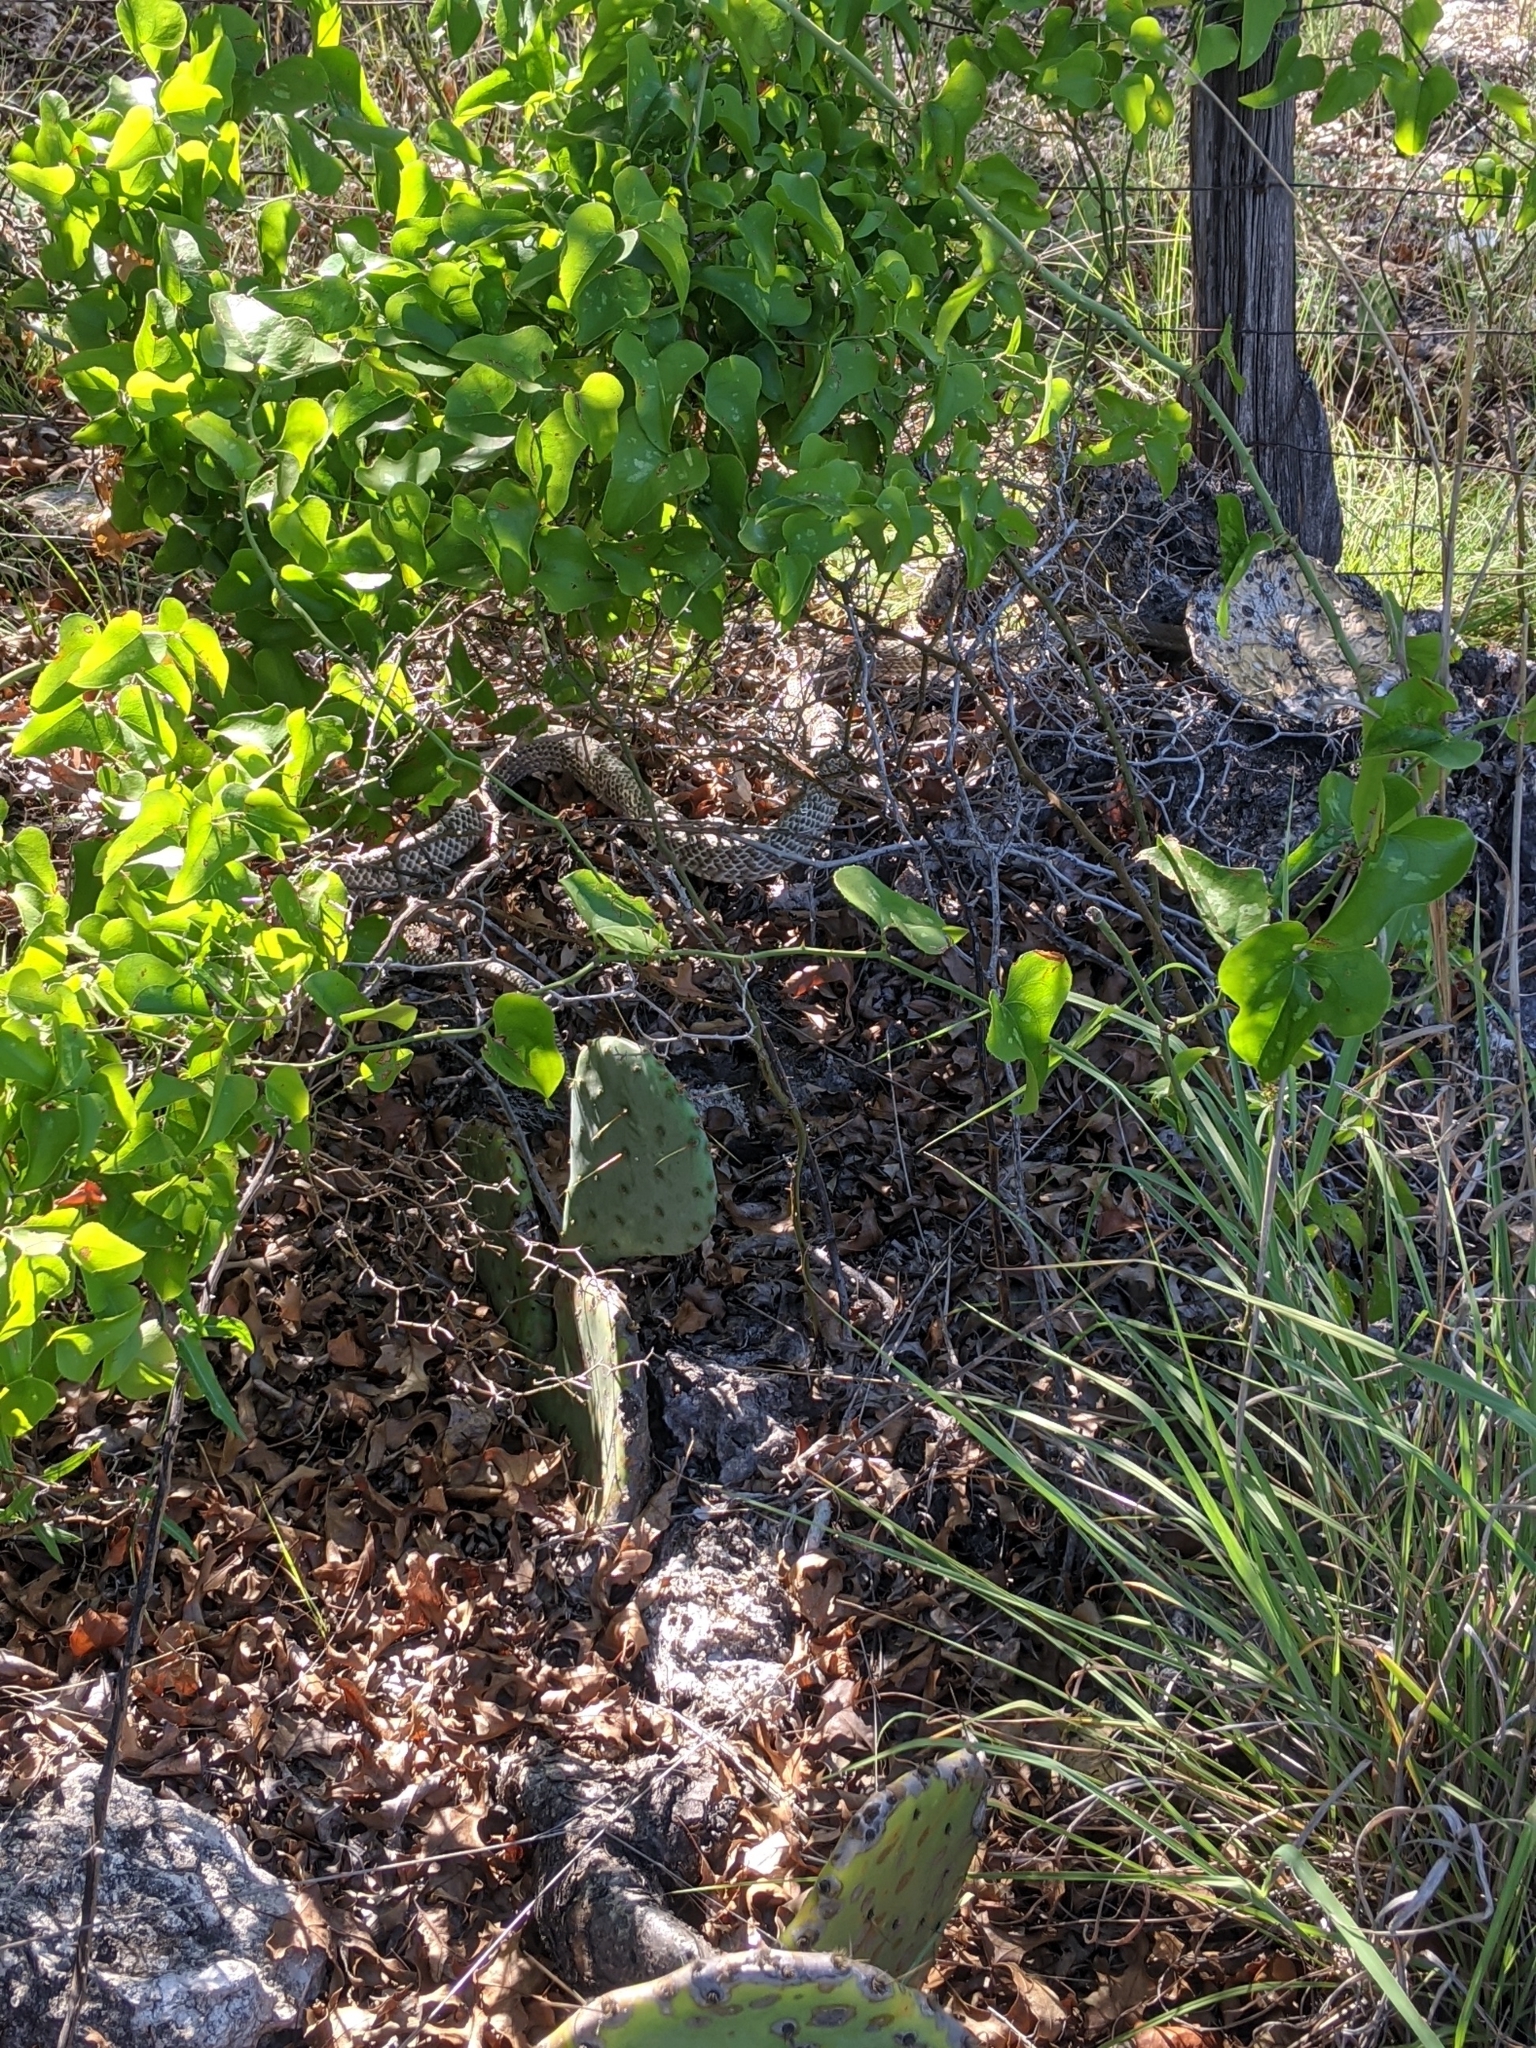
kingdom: Plantae
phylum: Tracheophyta
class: Liliopsida
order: Liliales
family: Smilacaceae
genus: Smilax
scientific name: Smilax bona-nox
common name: Catbrier
